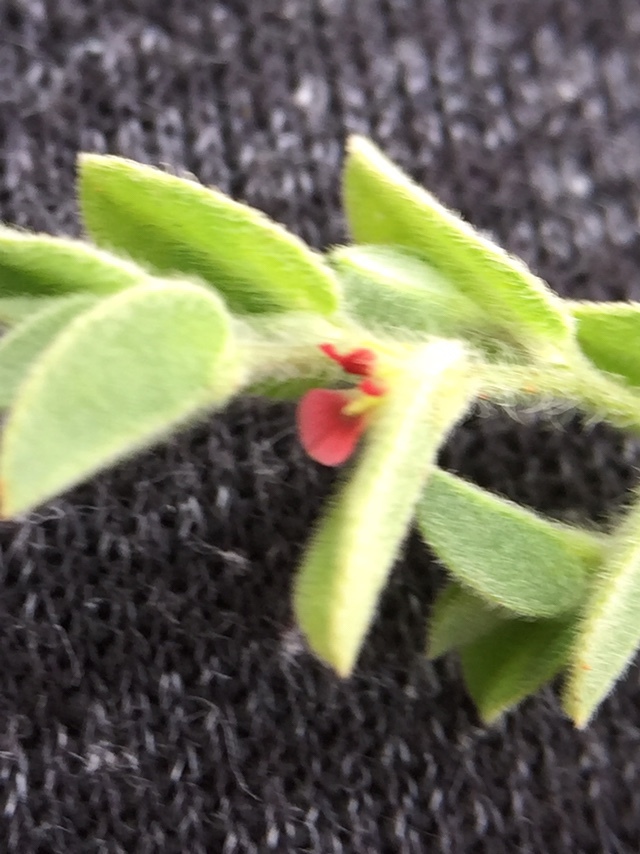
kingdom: Plantae
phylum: Tracheophyta
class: Magnoliopsida
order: Fabales
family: Fabaceae
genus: Indigofera
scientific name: Indigofera cordifolia
